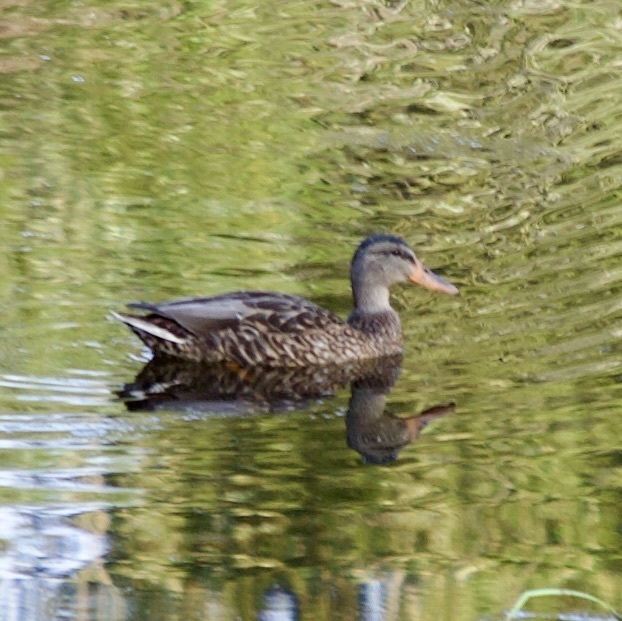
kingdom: Animalia
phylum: Chordata
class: Aves
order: Anseriformes
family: Anatidae
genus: Anas
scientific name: Anas platyrhynchos
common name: Mallard
